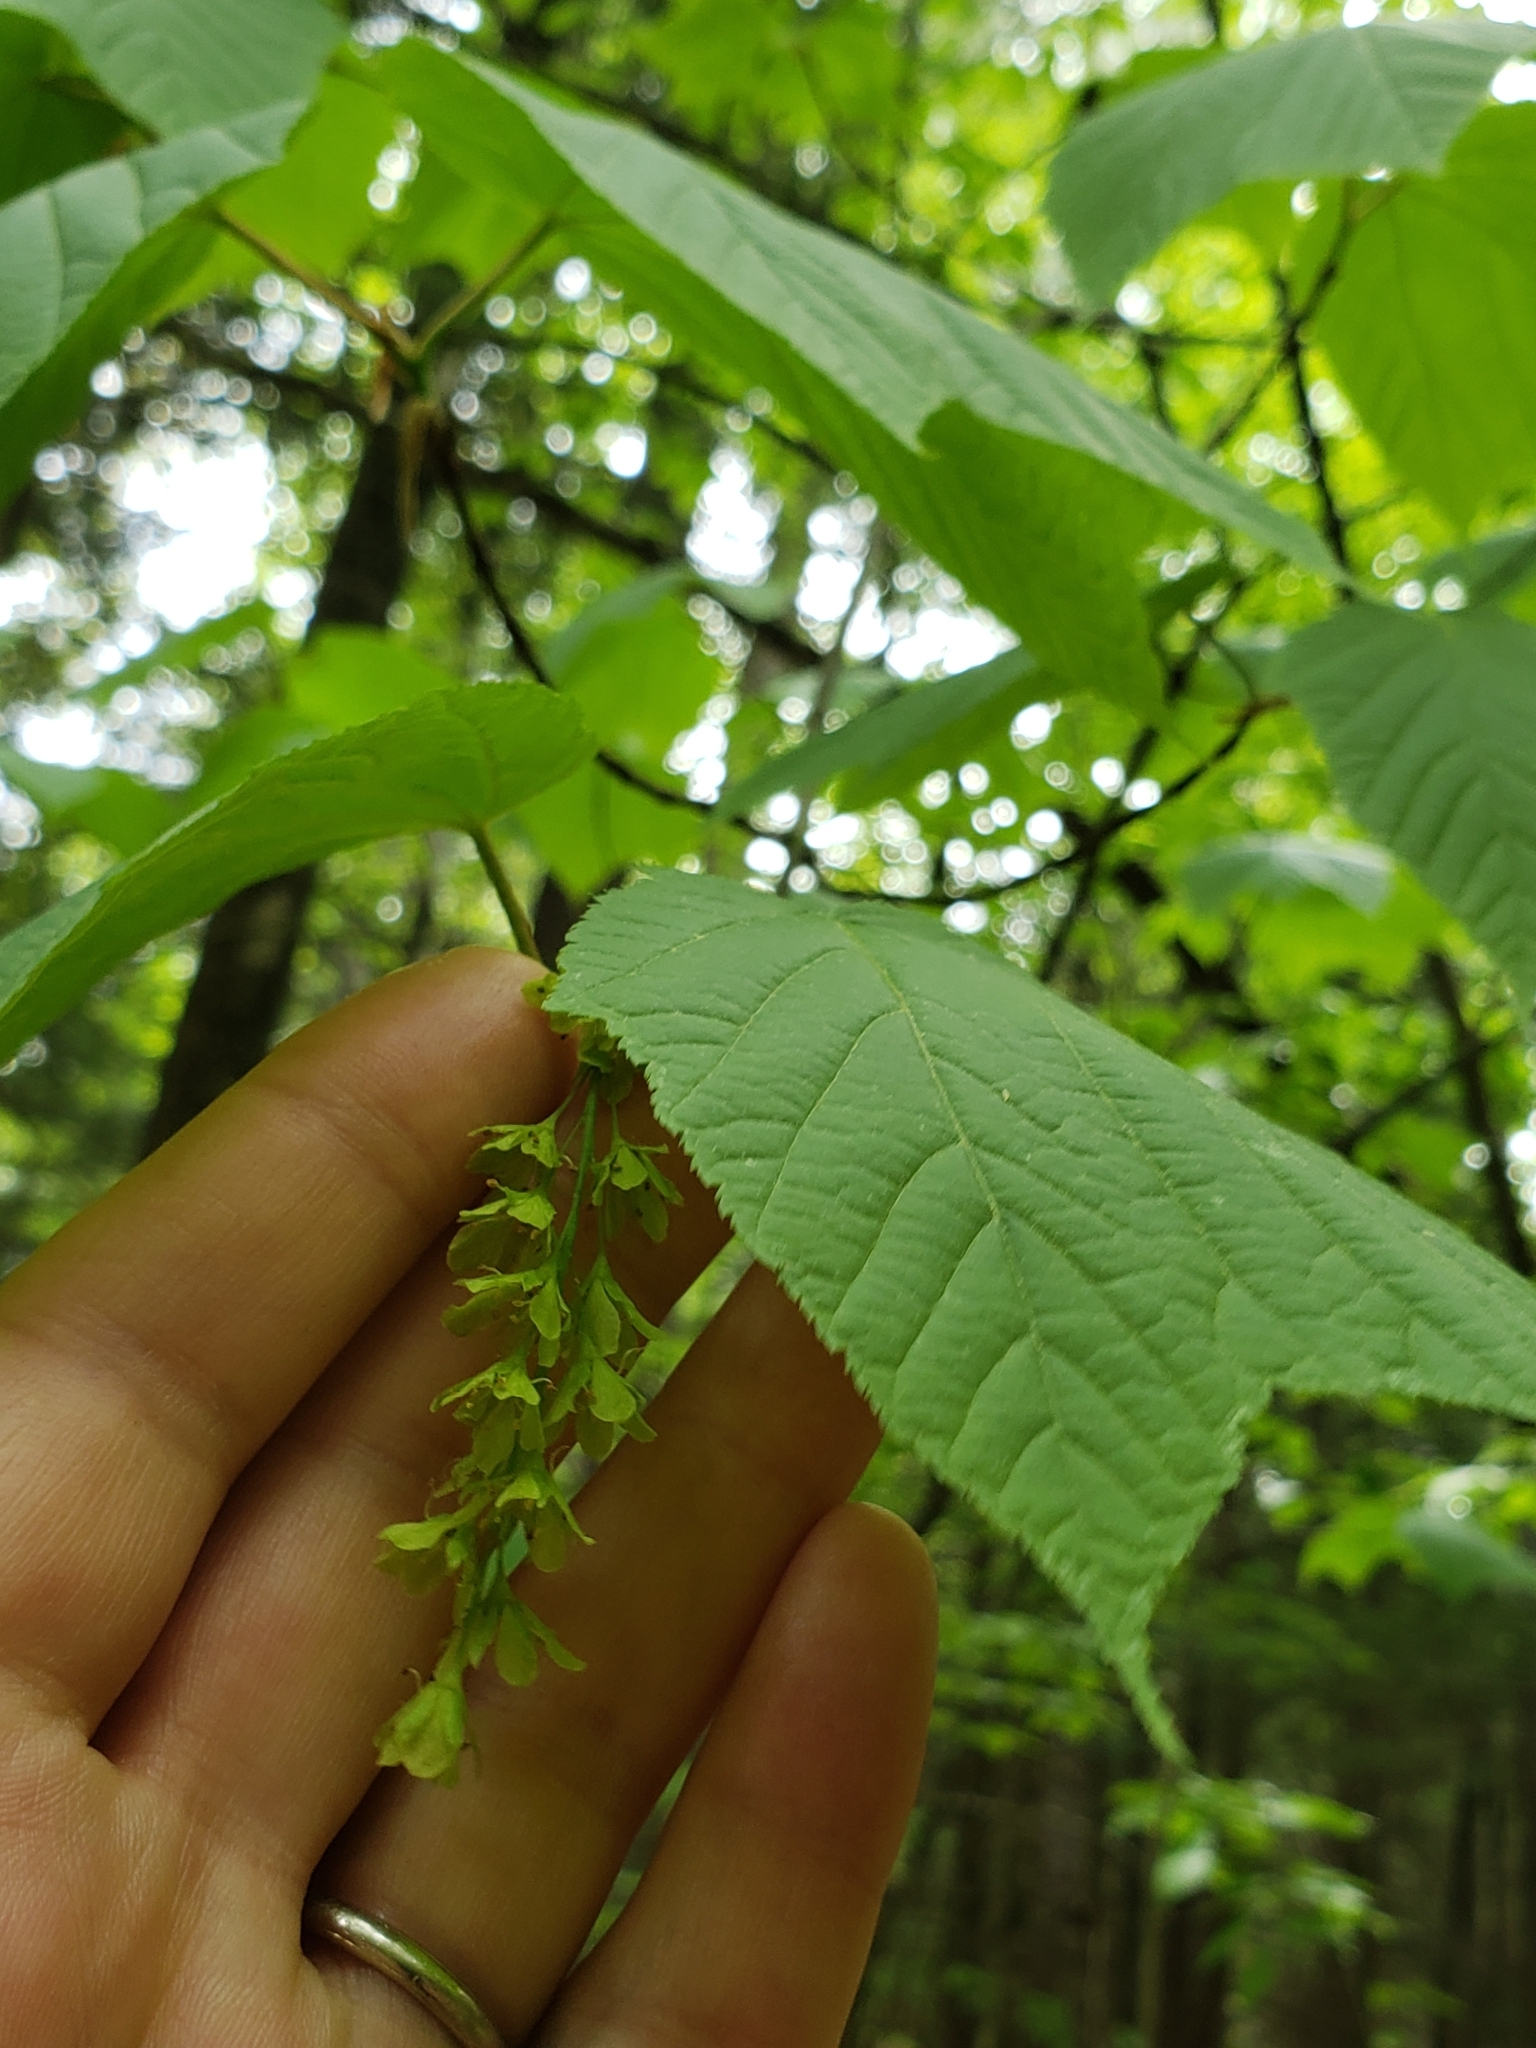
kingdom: Plantae
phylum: Tracheophyta
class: Magnoliopsida
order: Sapindales
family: Sapindaceae
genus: Acer
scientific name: Acer pensylvanicum
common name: Moosewood
